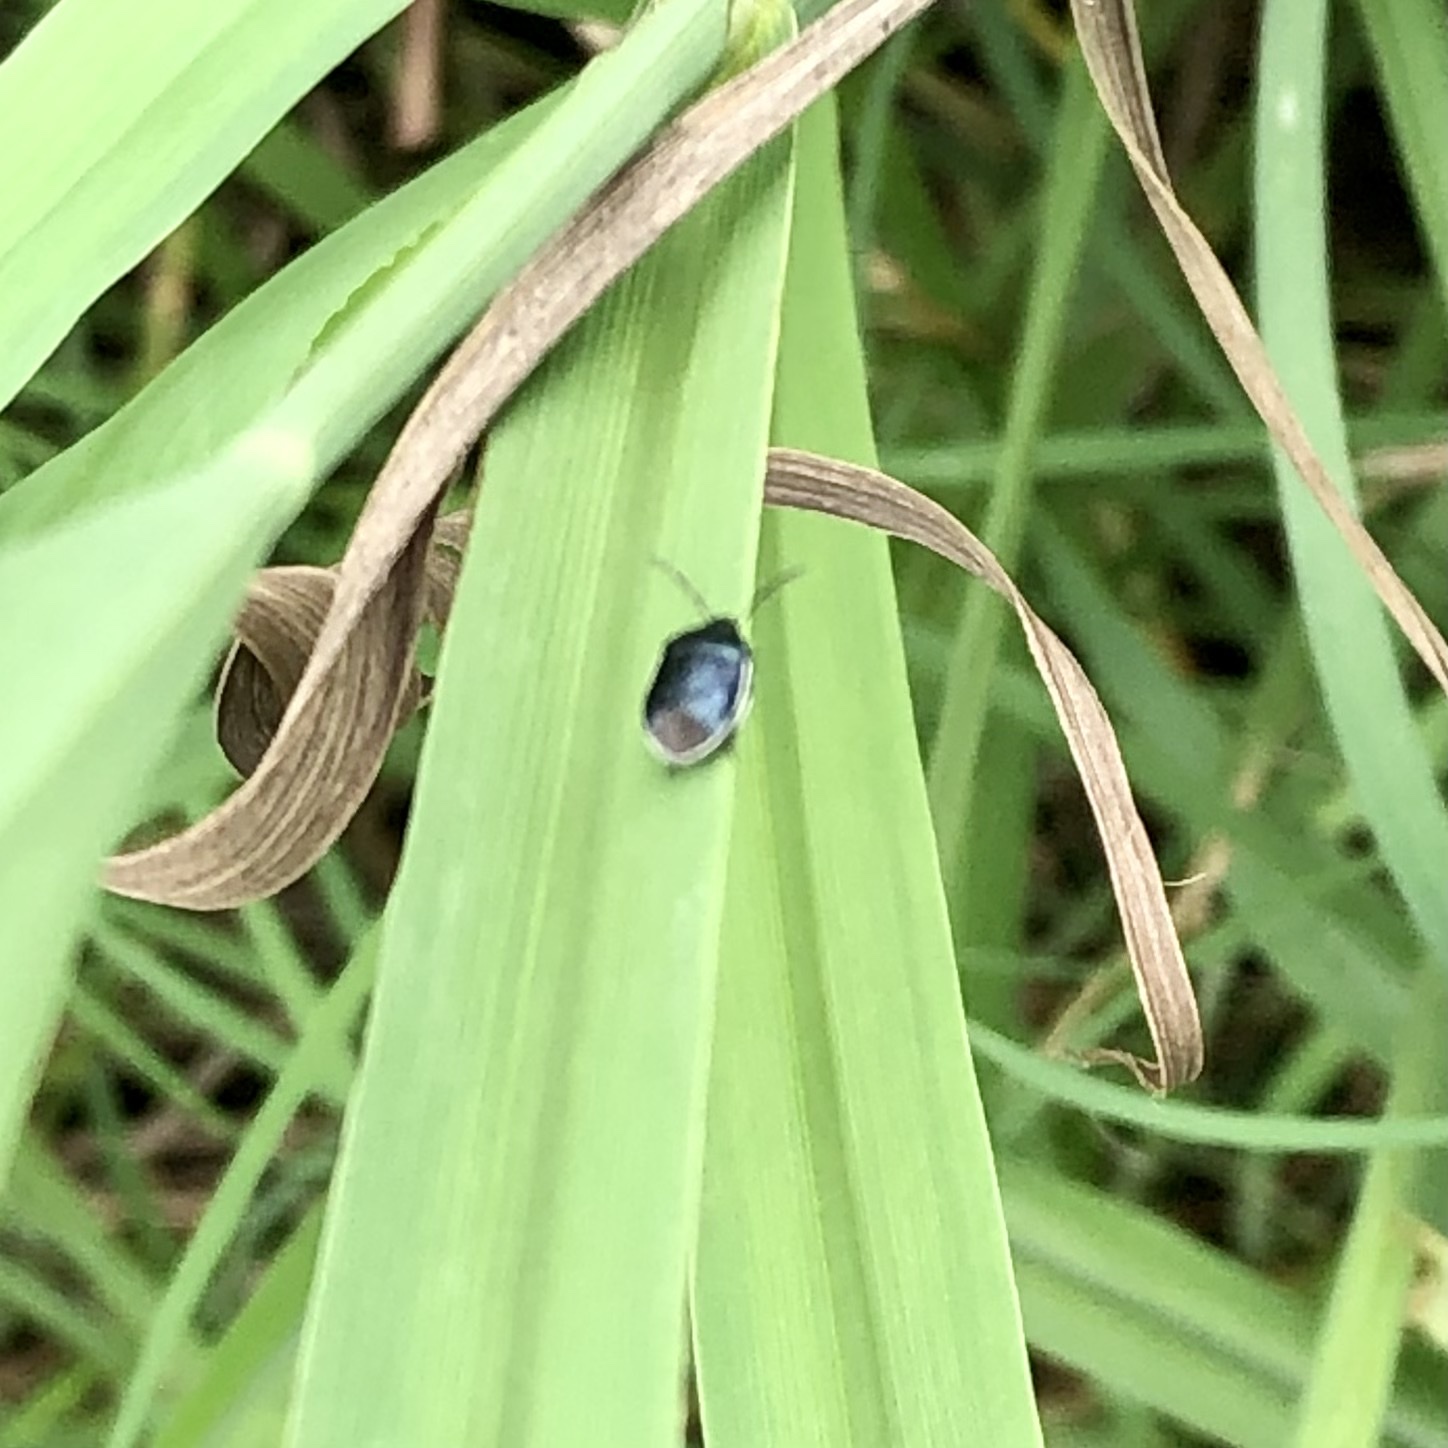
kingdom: Animalia
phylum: Arthropoda
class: Insecta
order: Hemiptera
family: Cydnidae
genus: Sehirus
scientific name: Sehirus cinctus
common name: White-margined burrower bug
